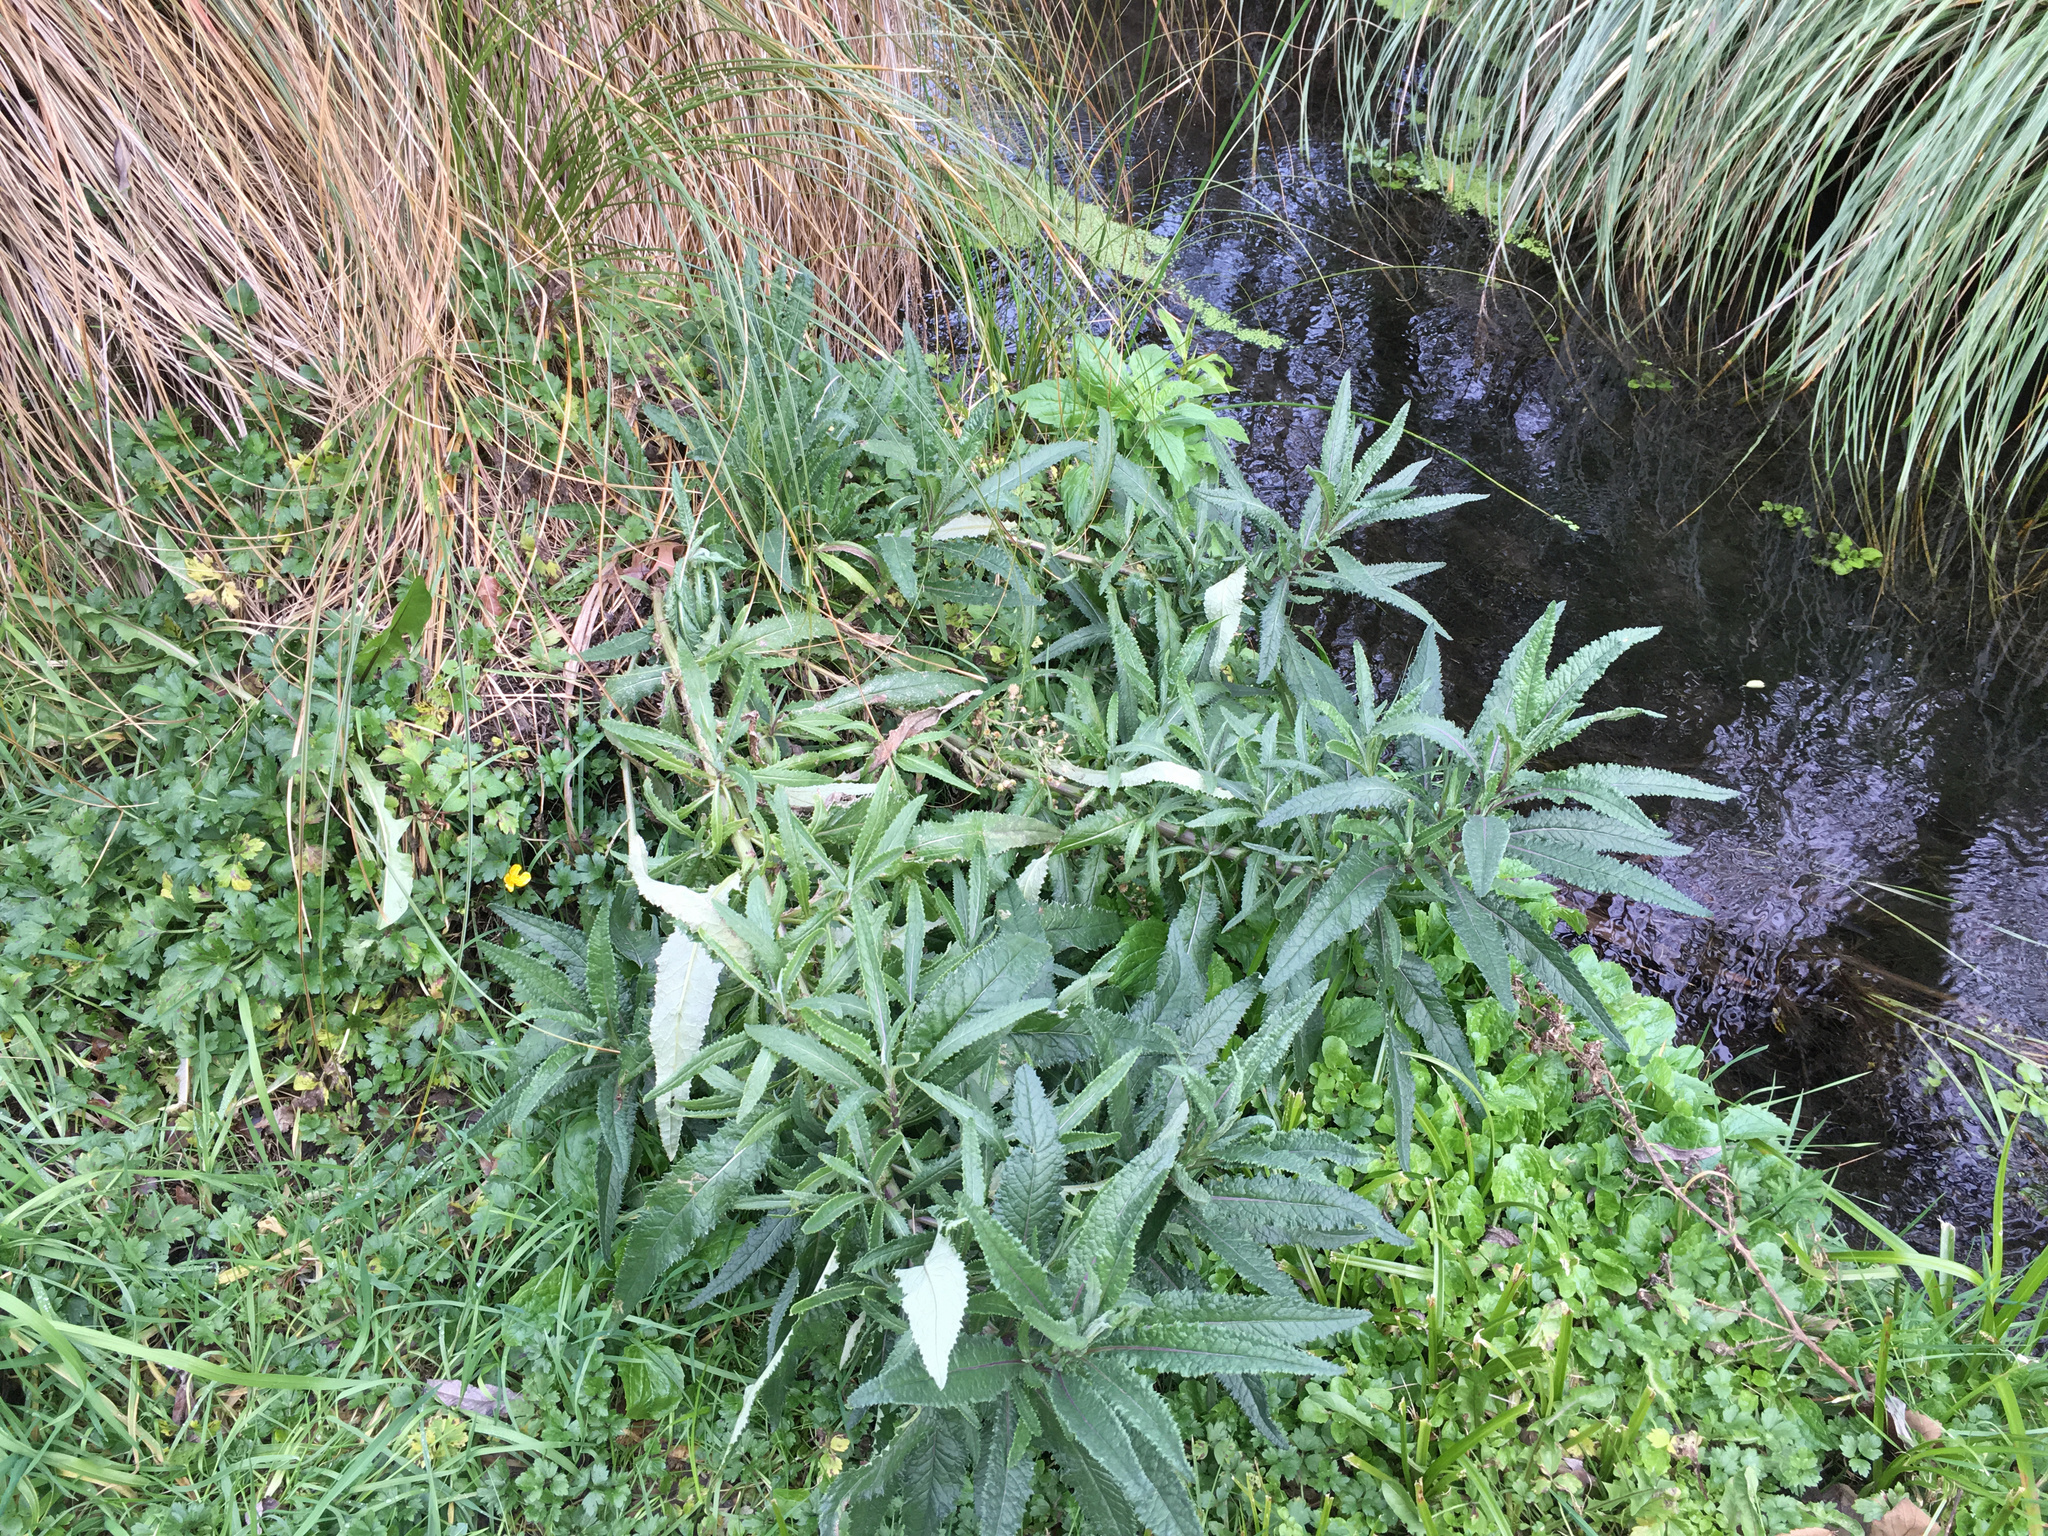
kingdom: Plantae
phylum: Tracheophyta
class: Magnoliopsida
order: Asterales
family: Asteraceae
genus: Senecio
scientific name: Senecio minimus
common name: Toothed fireweed
